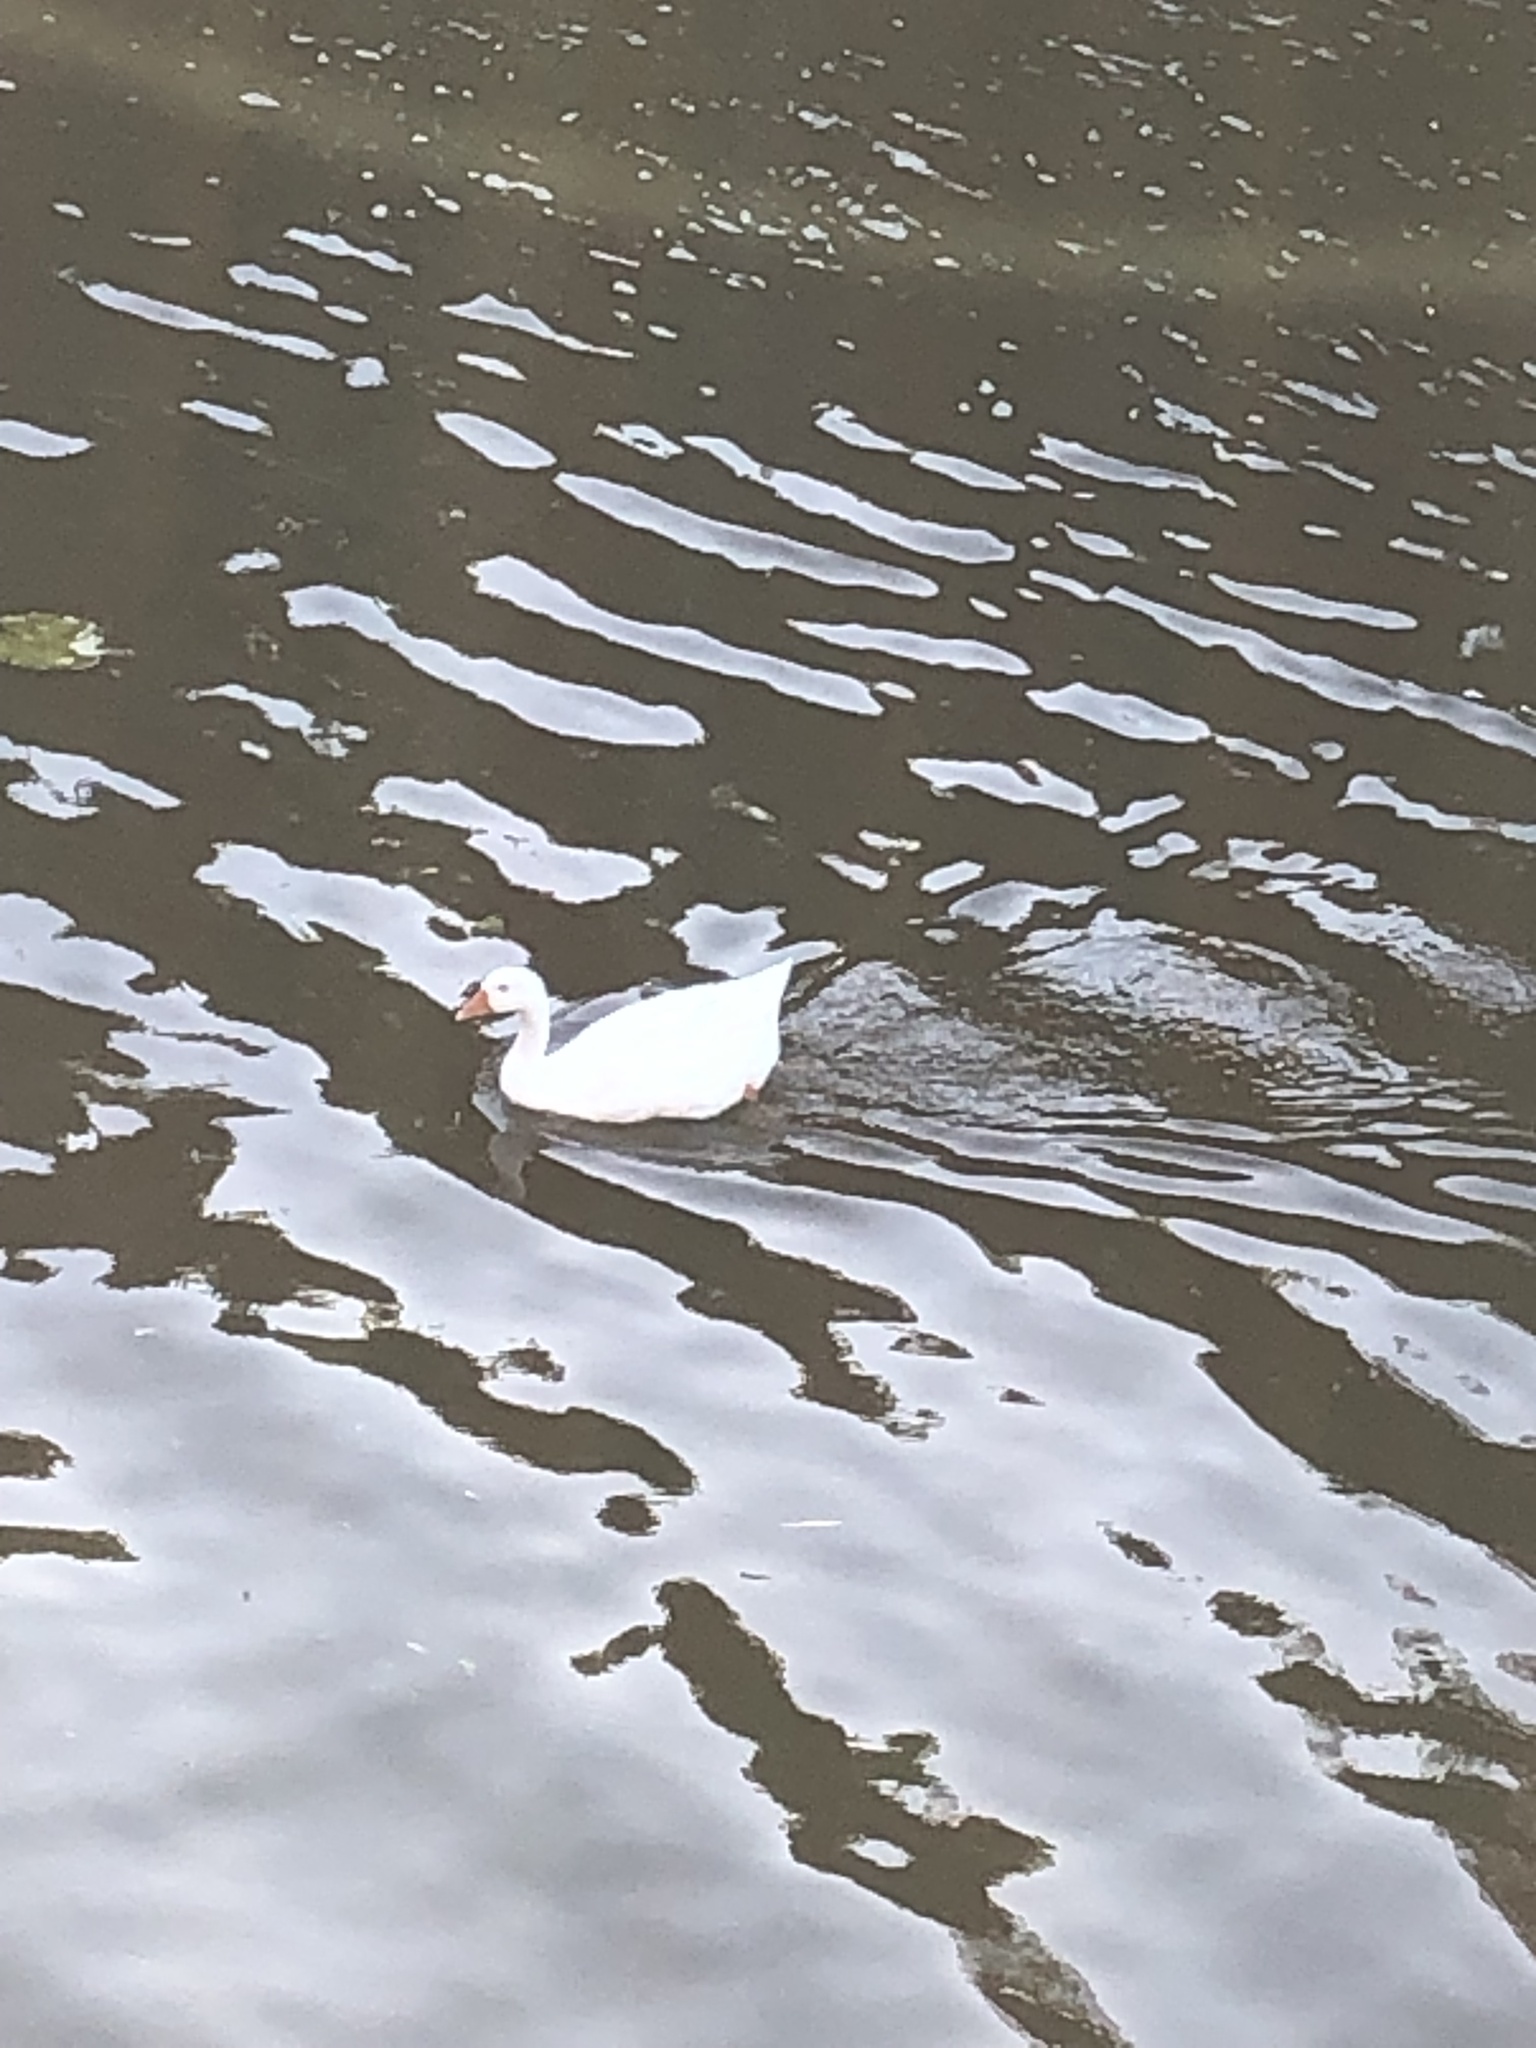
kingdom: Animalia
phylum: Chordata
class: Aves
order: Anseriformes
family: Anatidae
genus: Anser
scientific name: Anser anser
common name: Greylag goose
